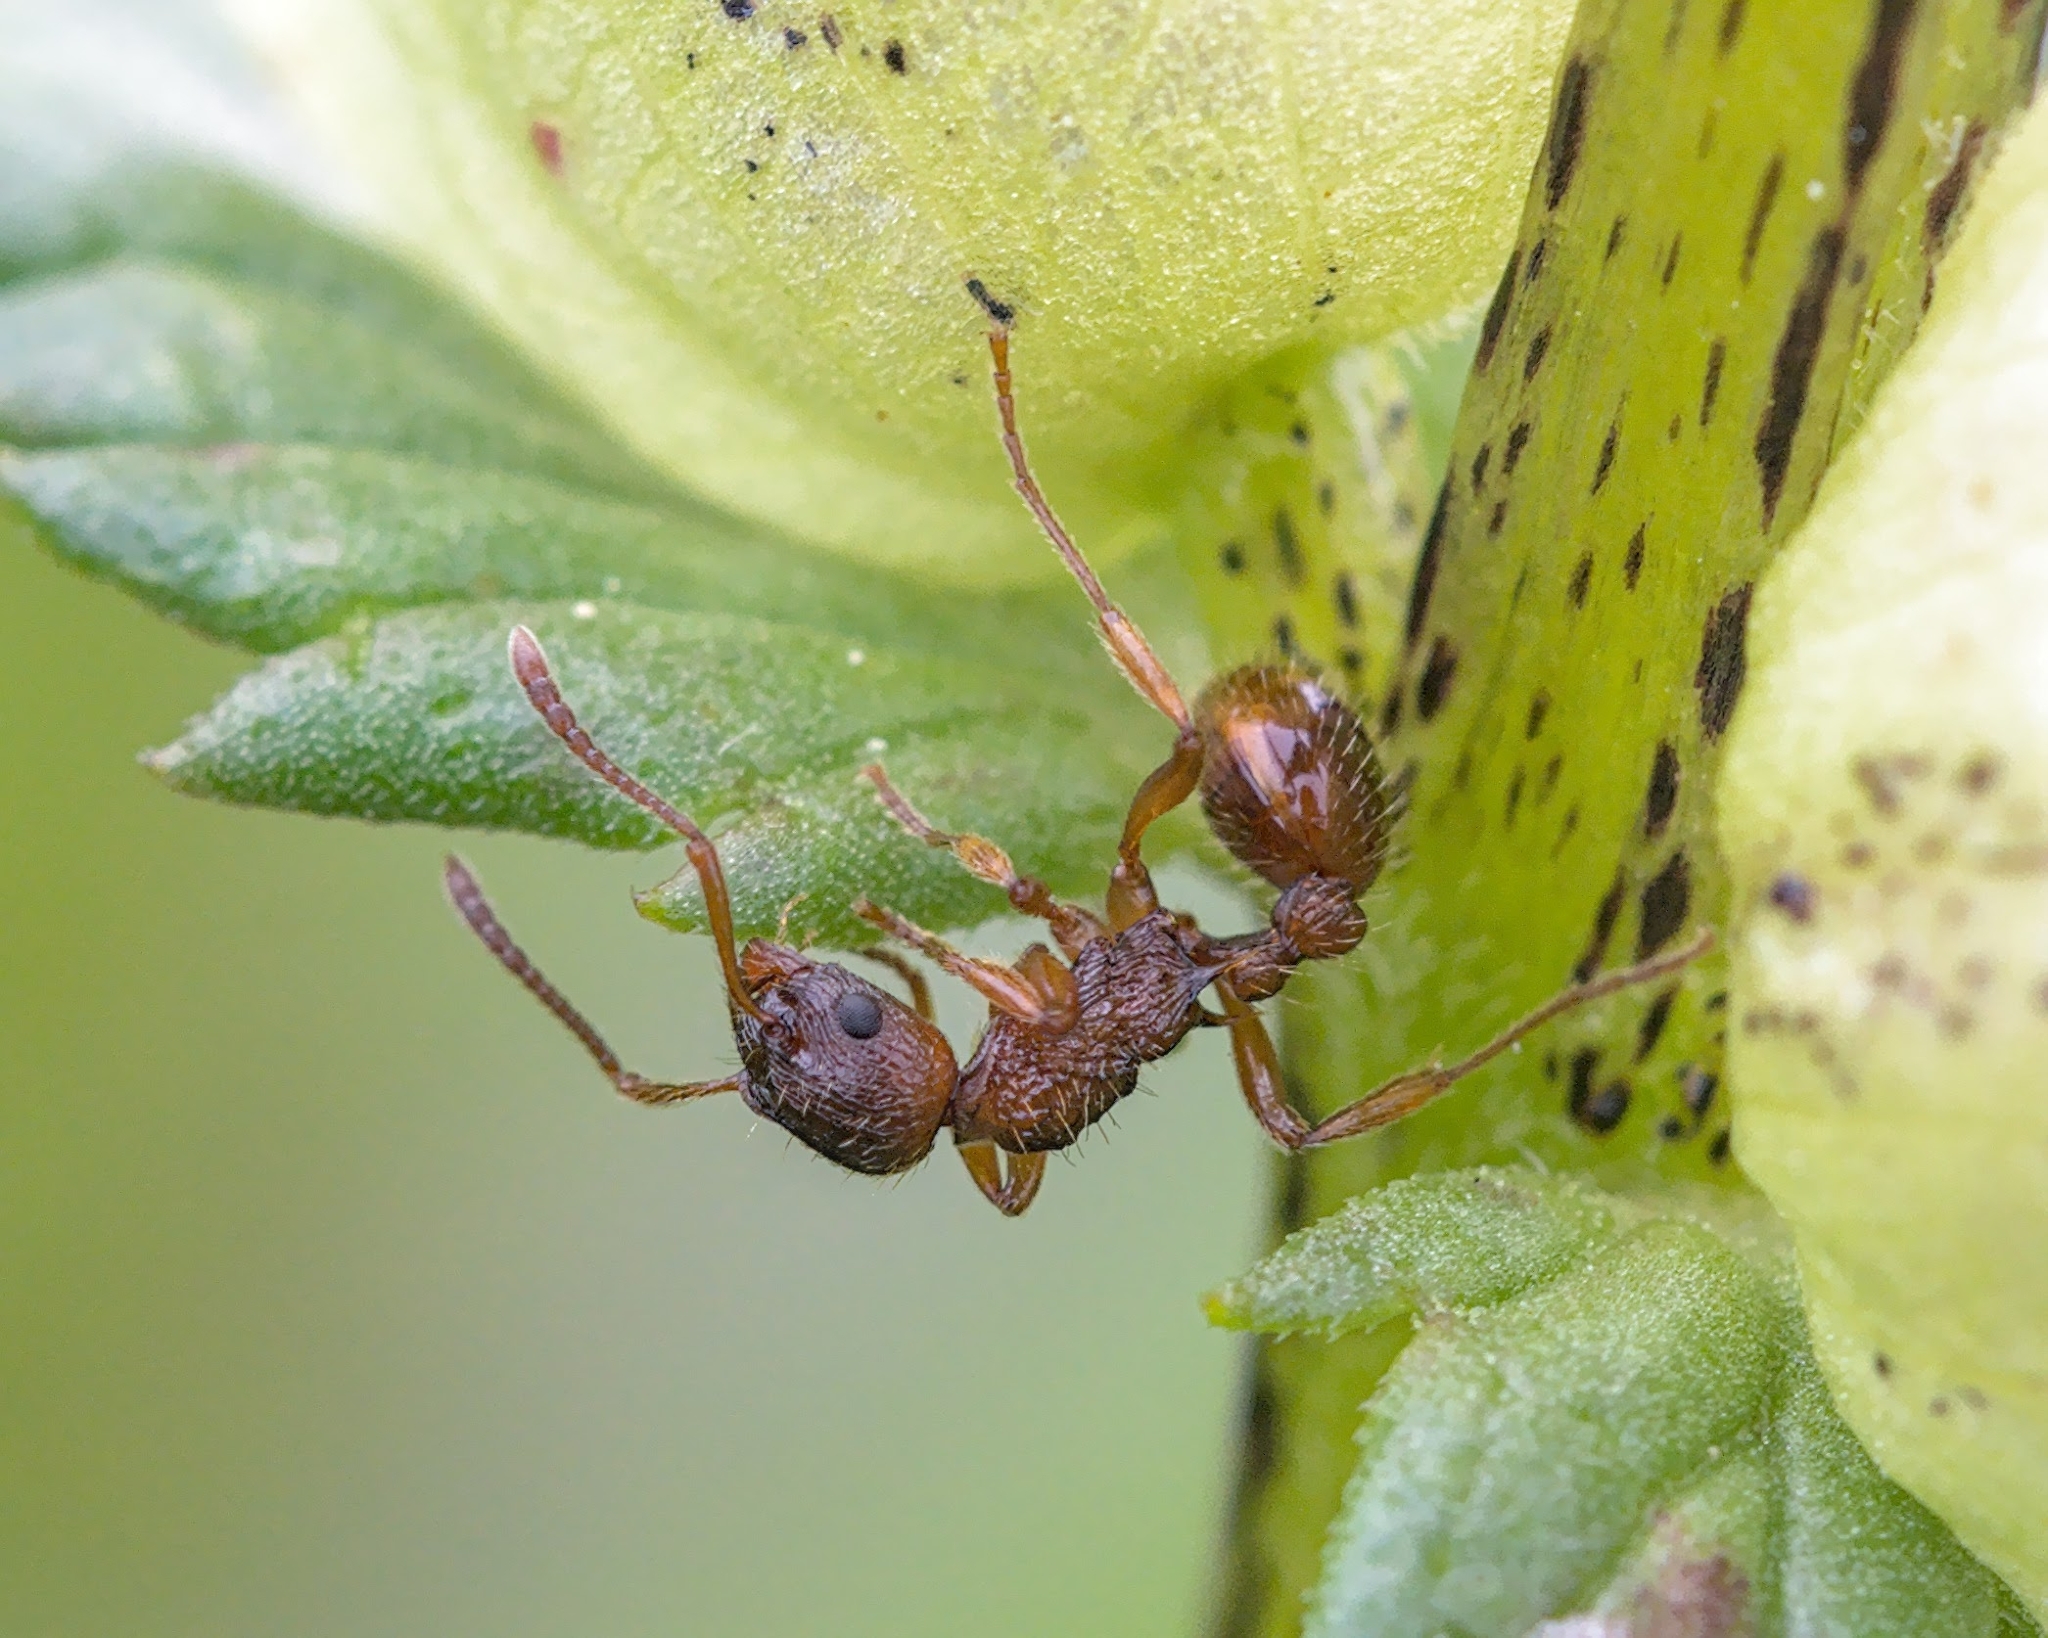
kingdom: Animalia
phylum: Arthropoda
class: Insecta
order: Hymenoptera
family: Formicidae
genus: Myrmica
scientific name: Myrmica ruginodis
